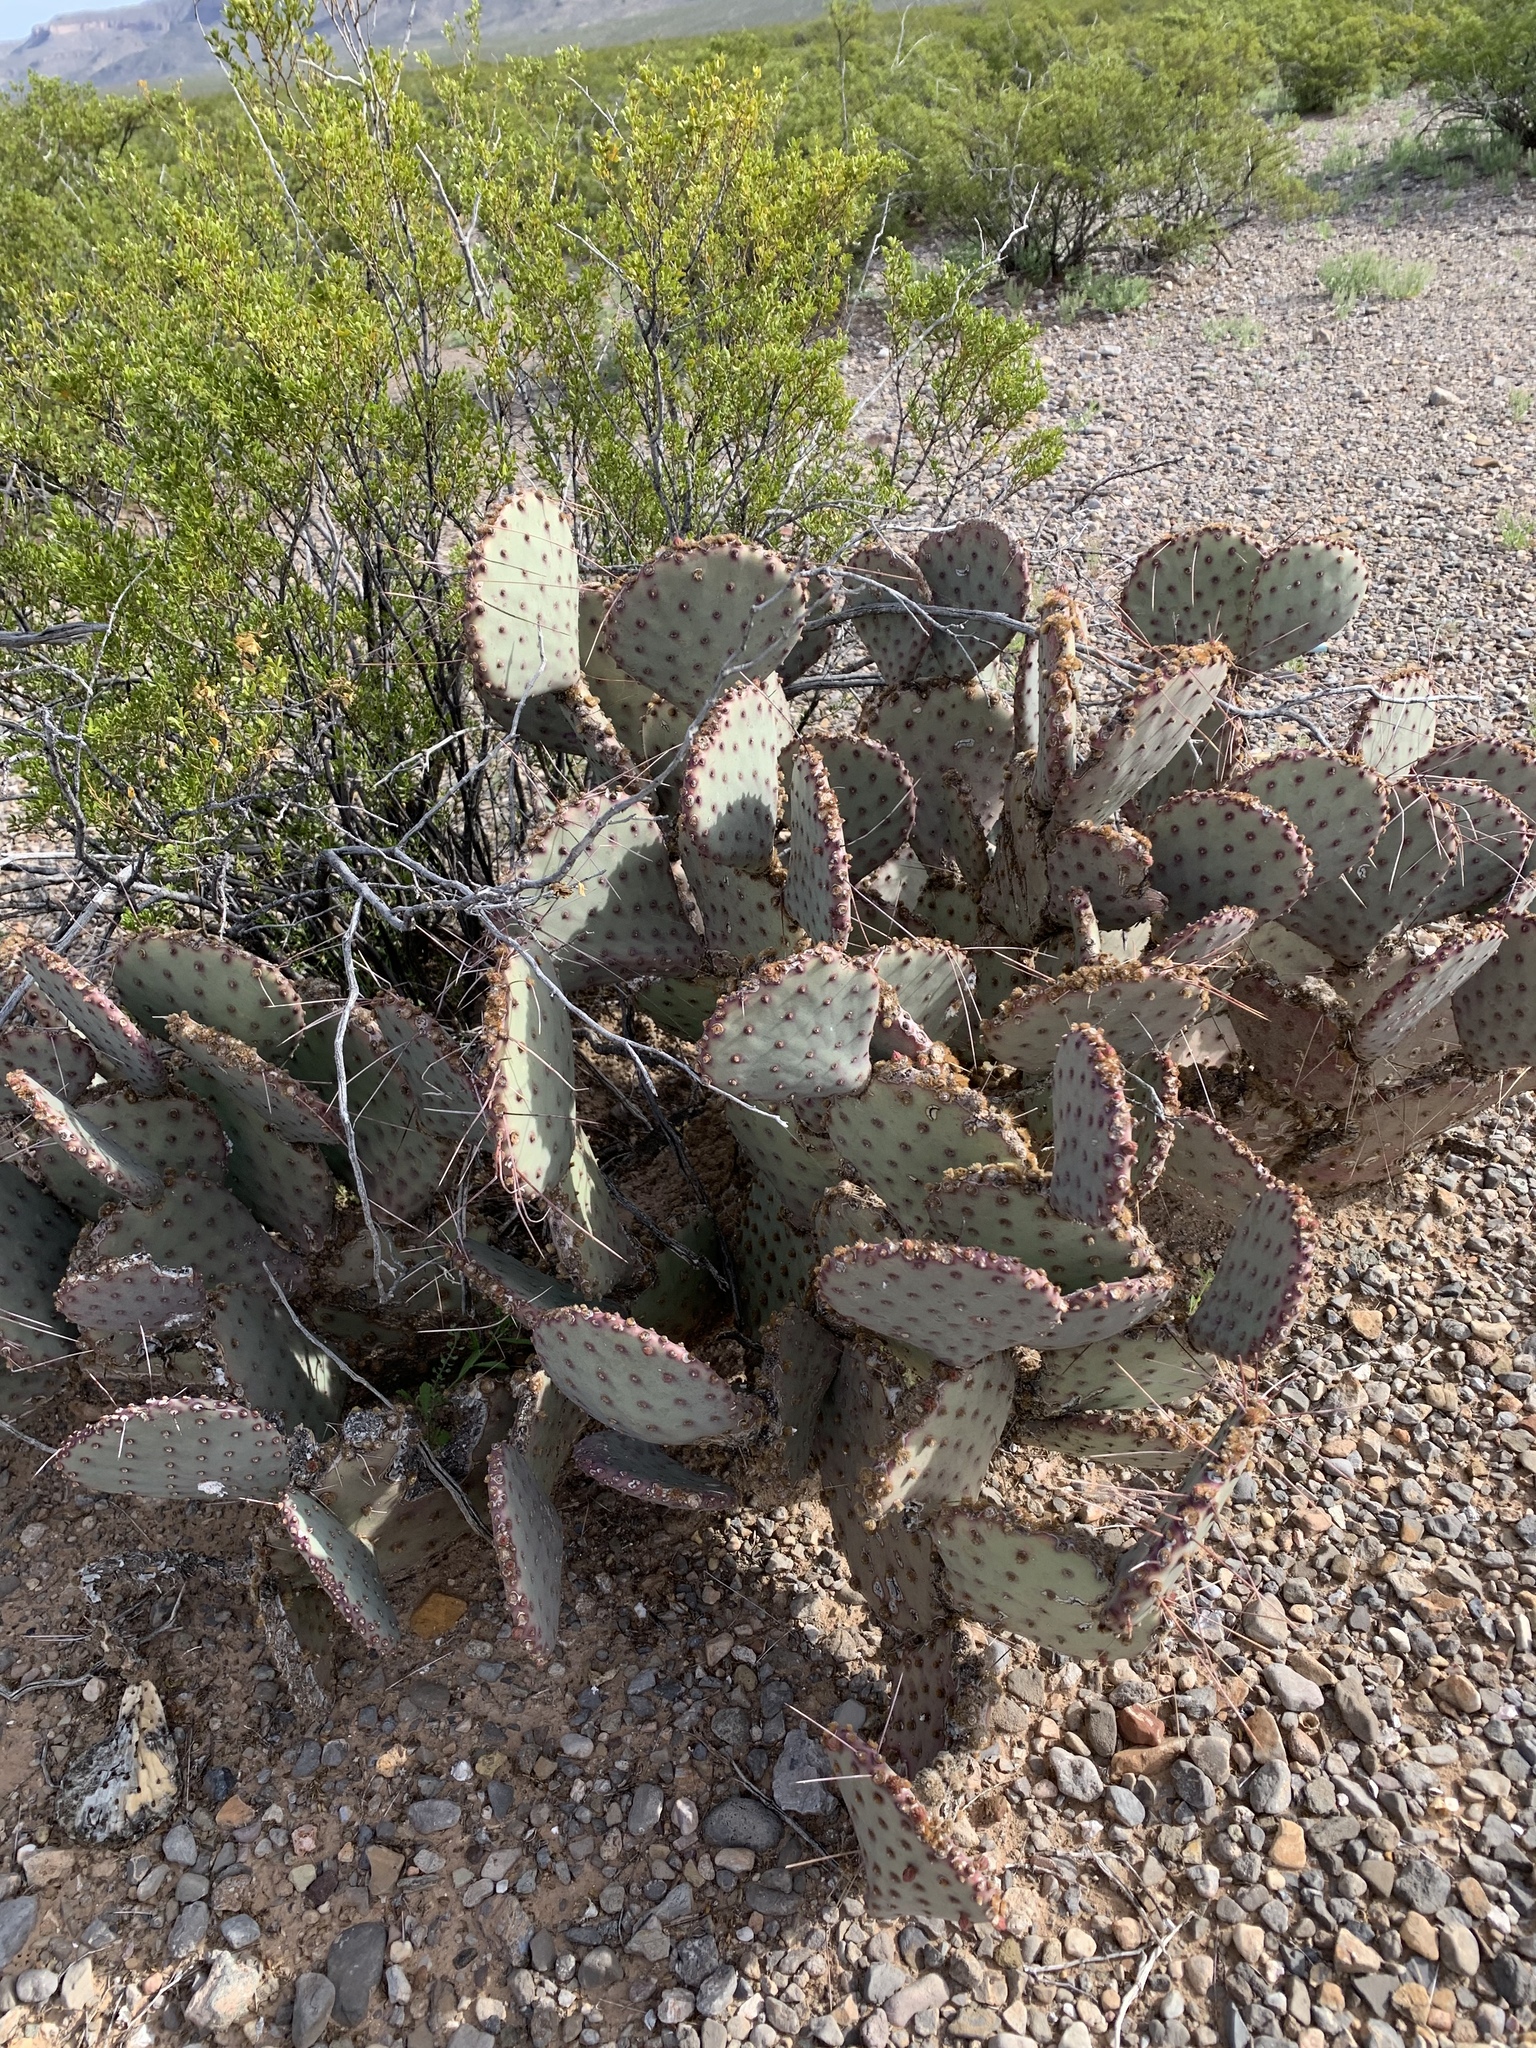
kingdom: Plantae
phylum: Tracheophyta
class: Magnoliopsida
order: Caryophyllales
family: Cactaceae
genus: Opuntia
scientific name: Opuntia macrocentra
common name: Purple prickly-pear
